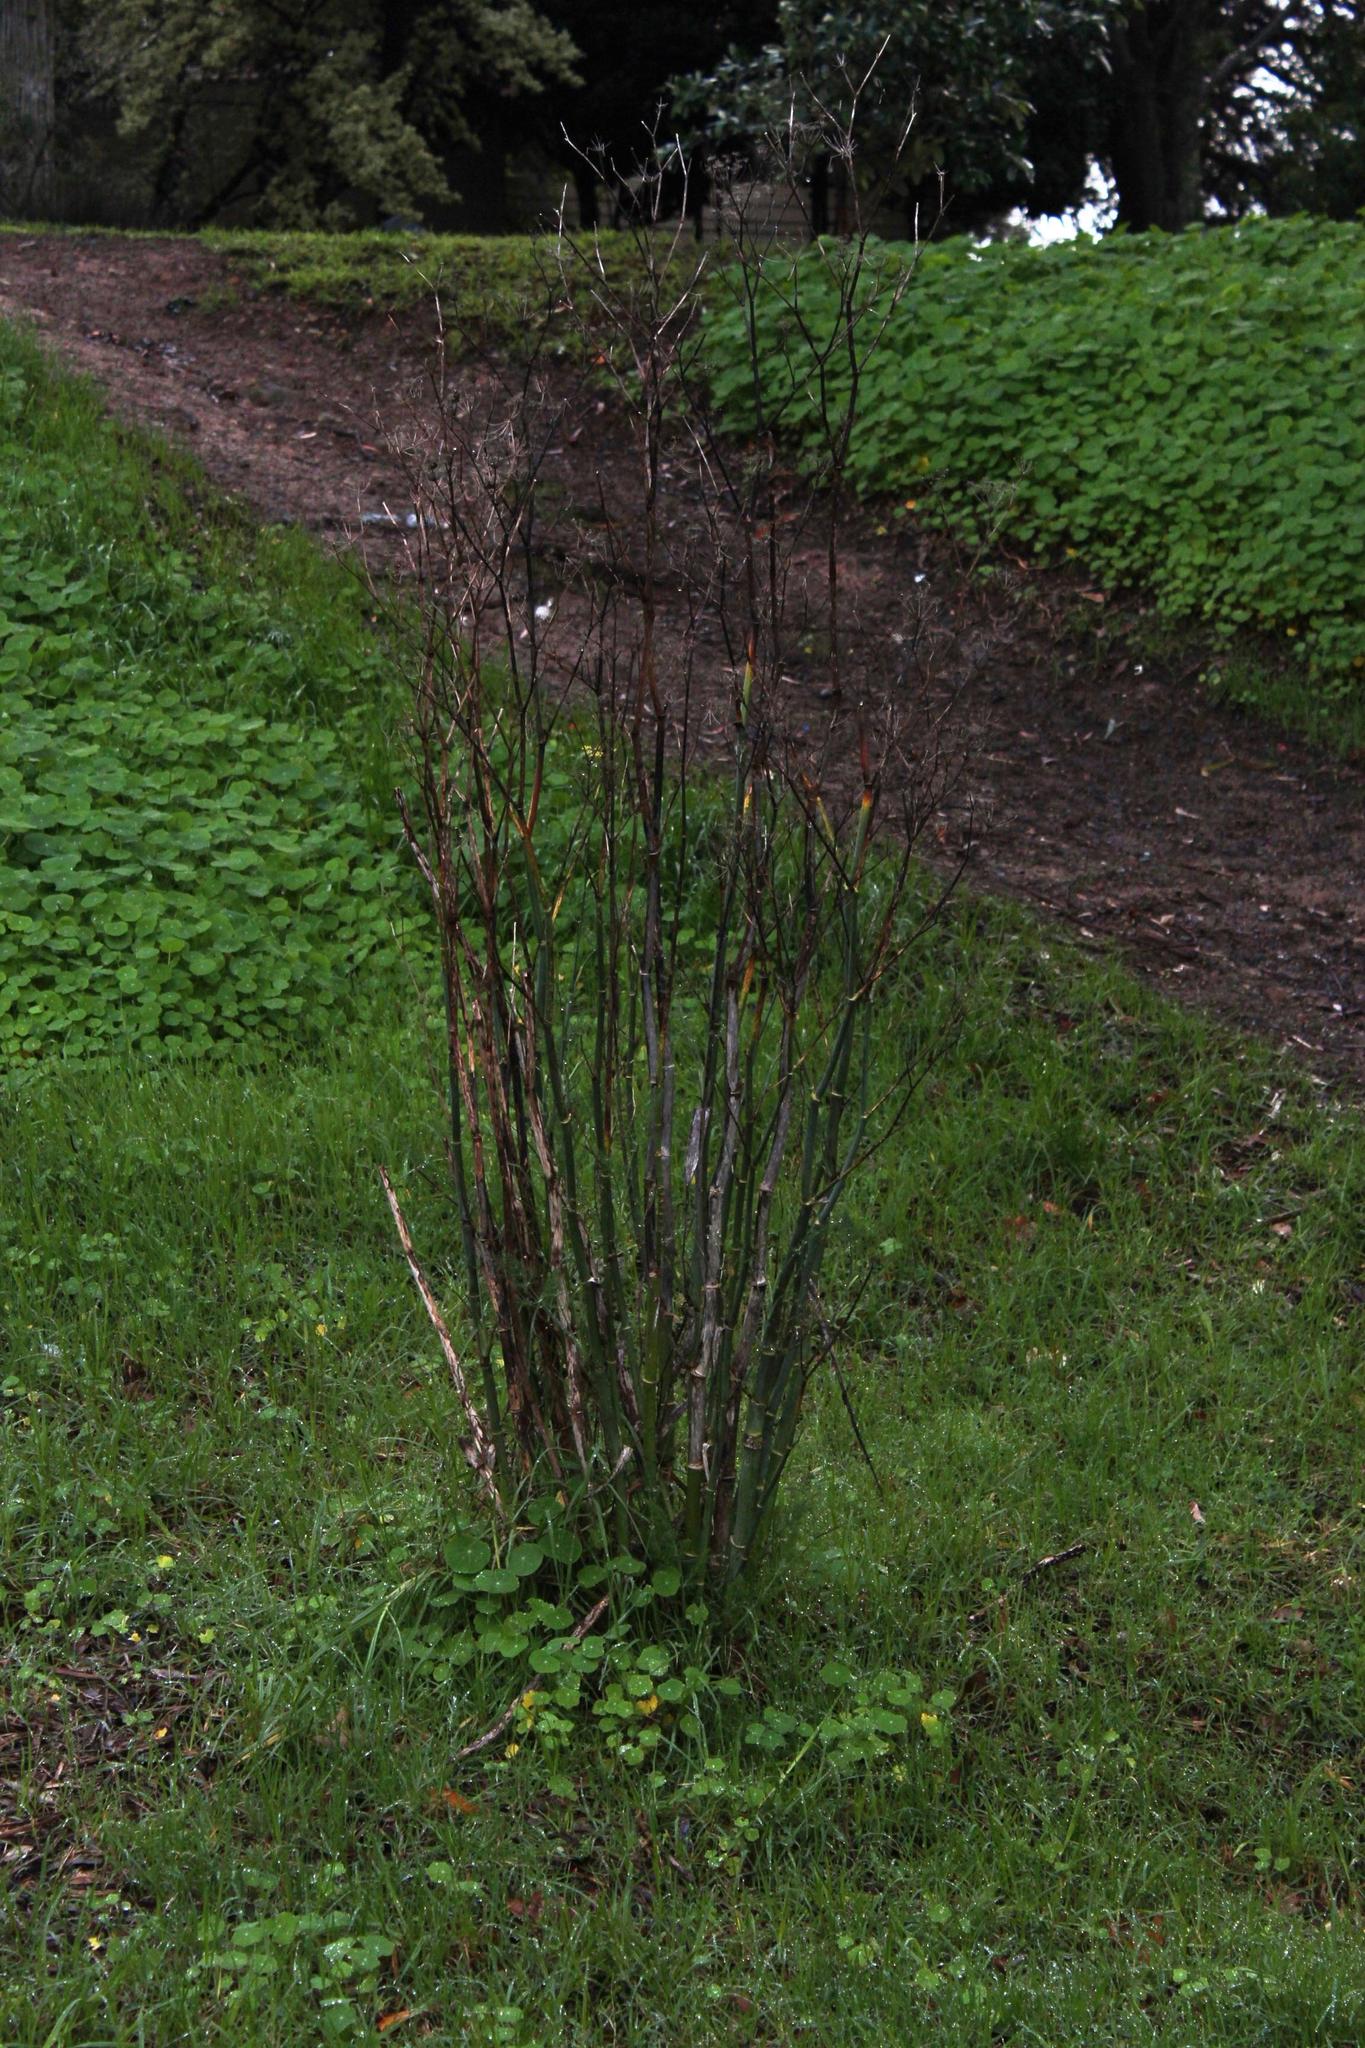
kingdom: Plantae
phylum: Tracheophyta
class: Magnoliopsida
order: Apiales
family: Apiaceae
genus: Foeniculum
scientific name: Foeniculum vulgare
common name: Fennel
